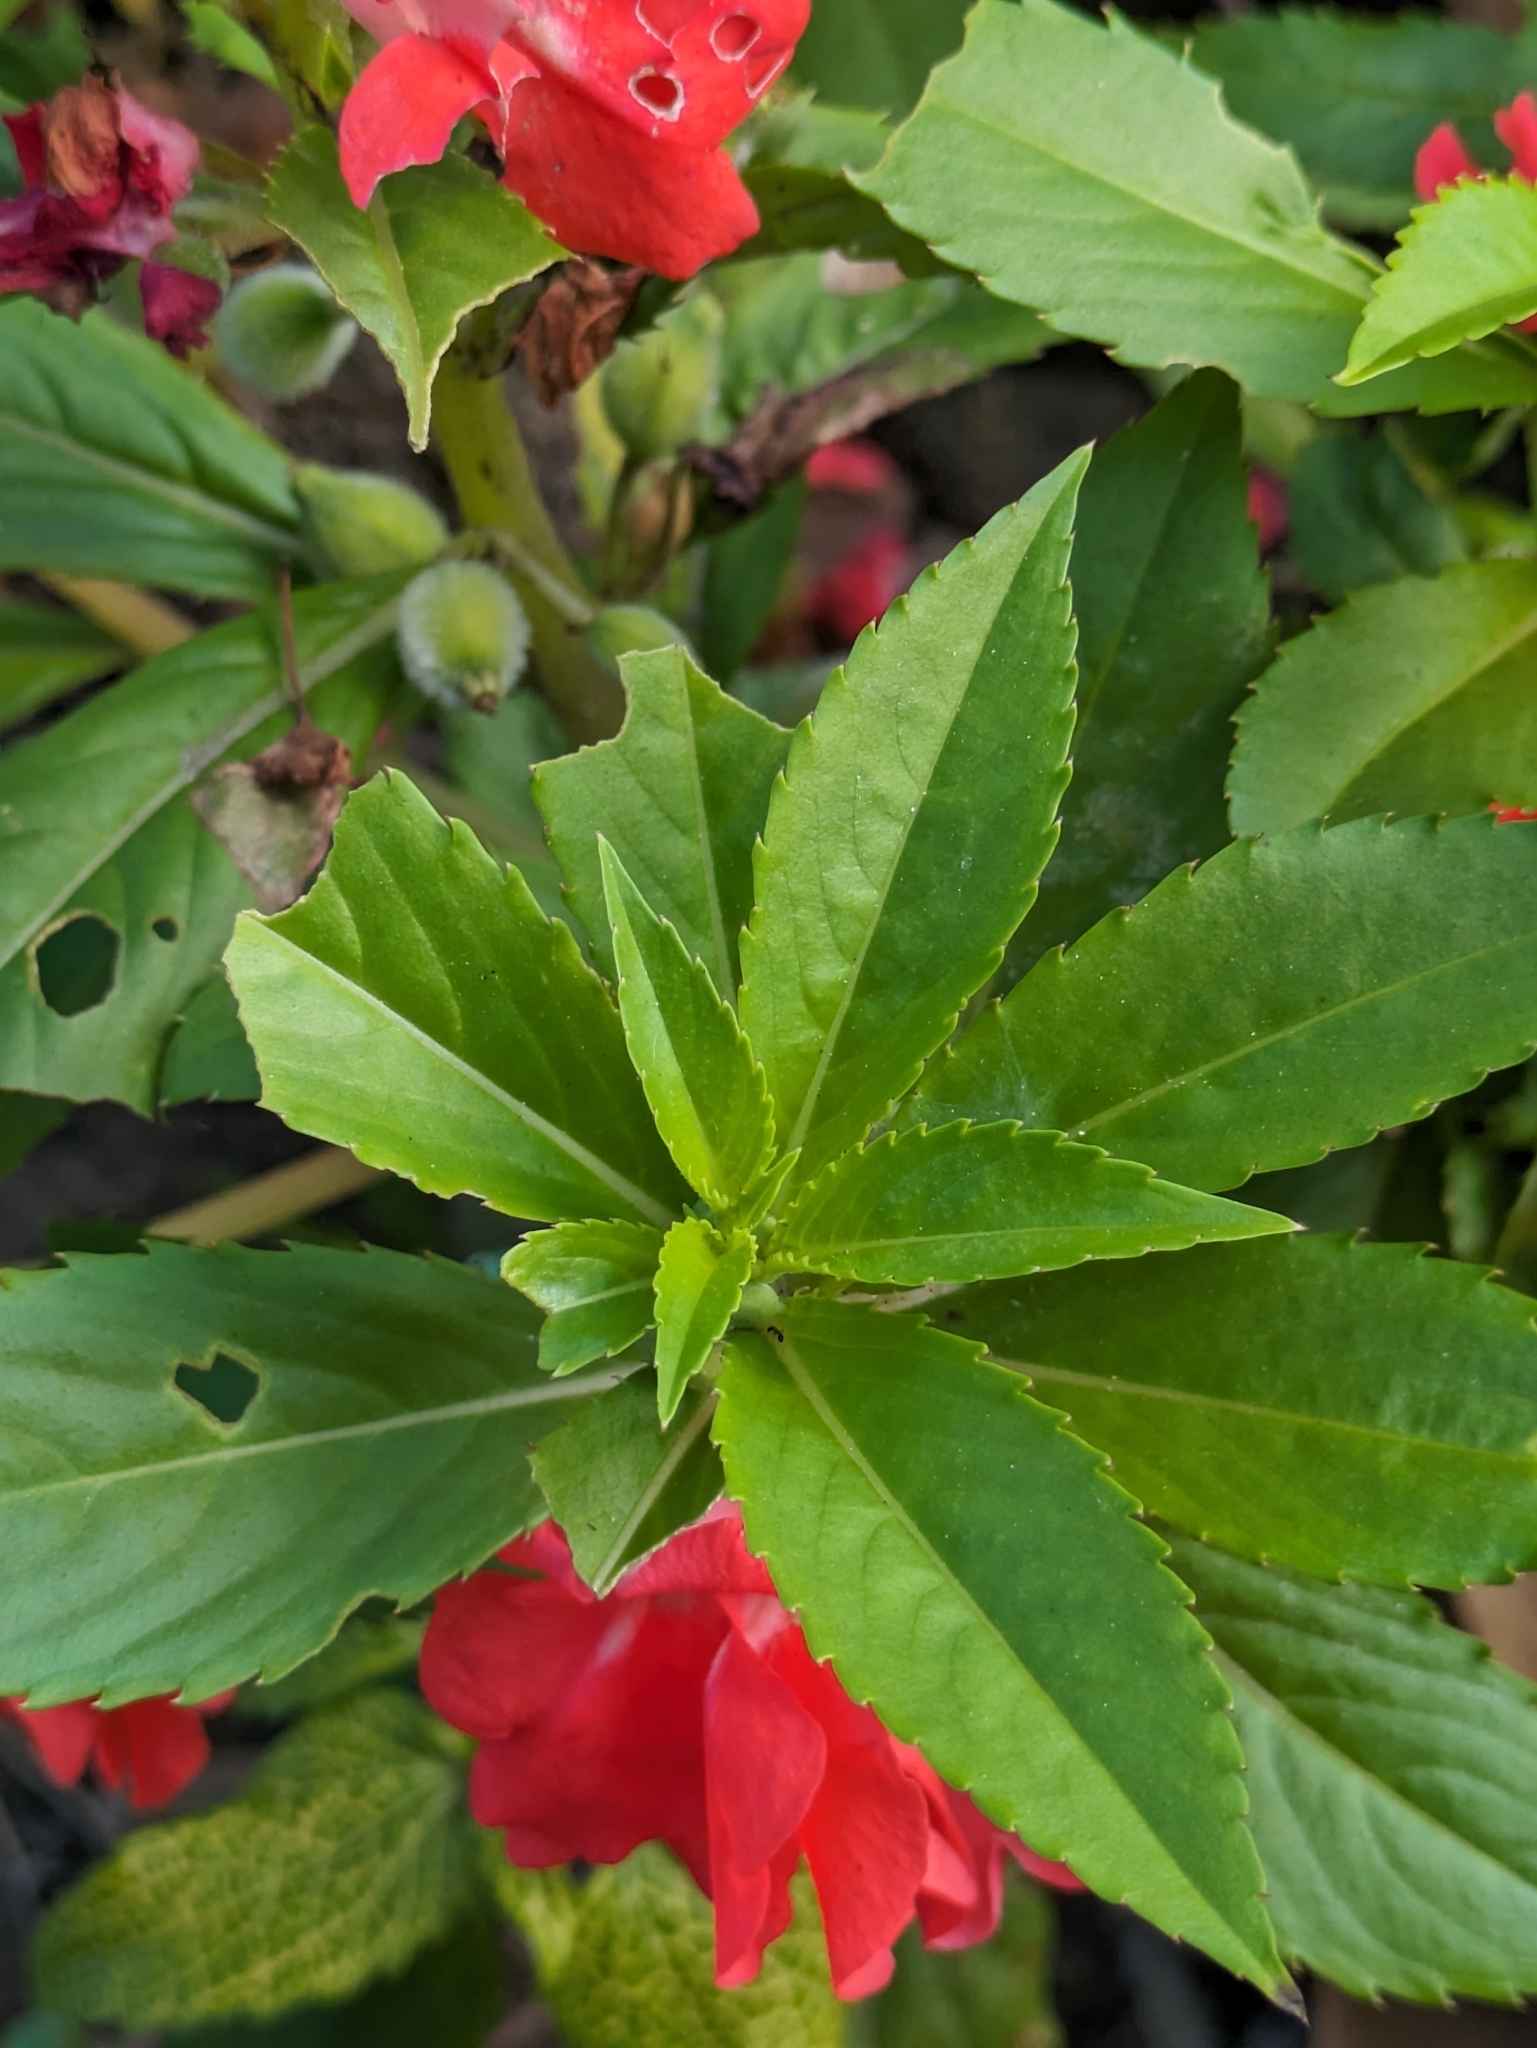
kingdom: Plantae
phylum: Tracheophyta
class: Magnoliopsida
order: Ericales
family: Balsaminaceae
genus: Impatiens
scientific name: Impatiens balsamina
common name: Balsam
